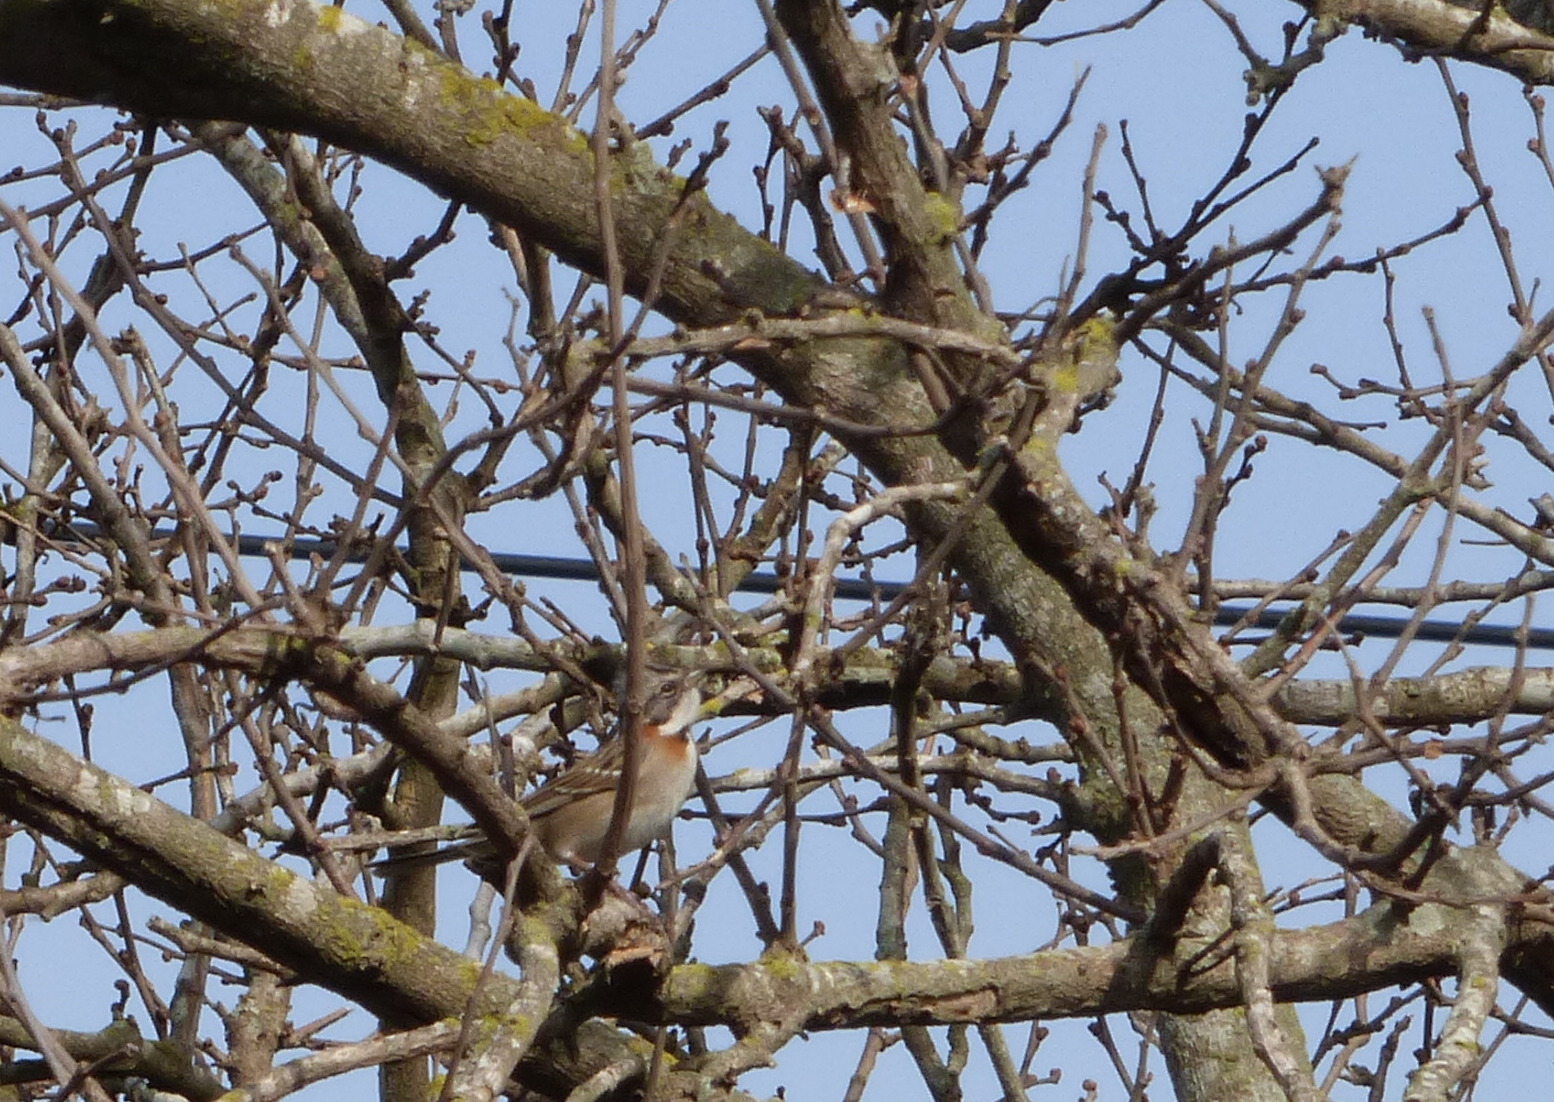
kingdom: Animalia
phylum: Chordata
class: Aves
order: Passeriformes
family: Passerellidae
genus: Zonotrichia
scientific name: Zonotrichia capensis
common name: Rufous-collared sparrow
